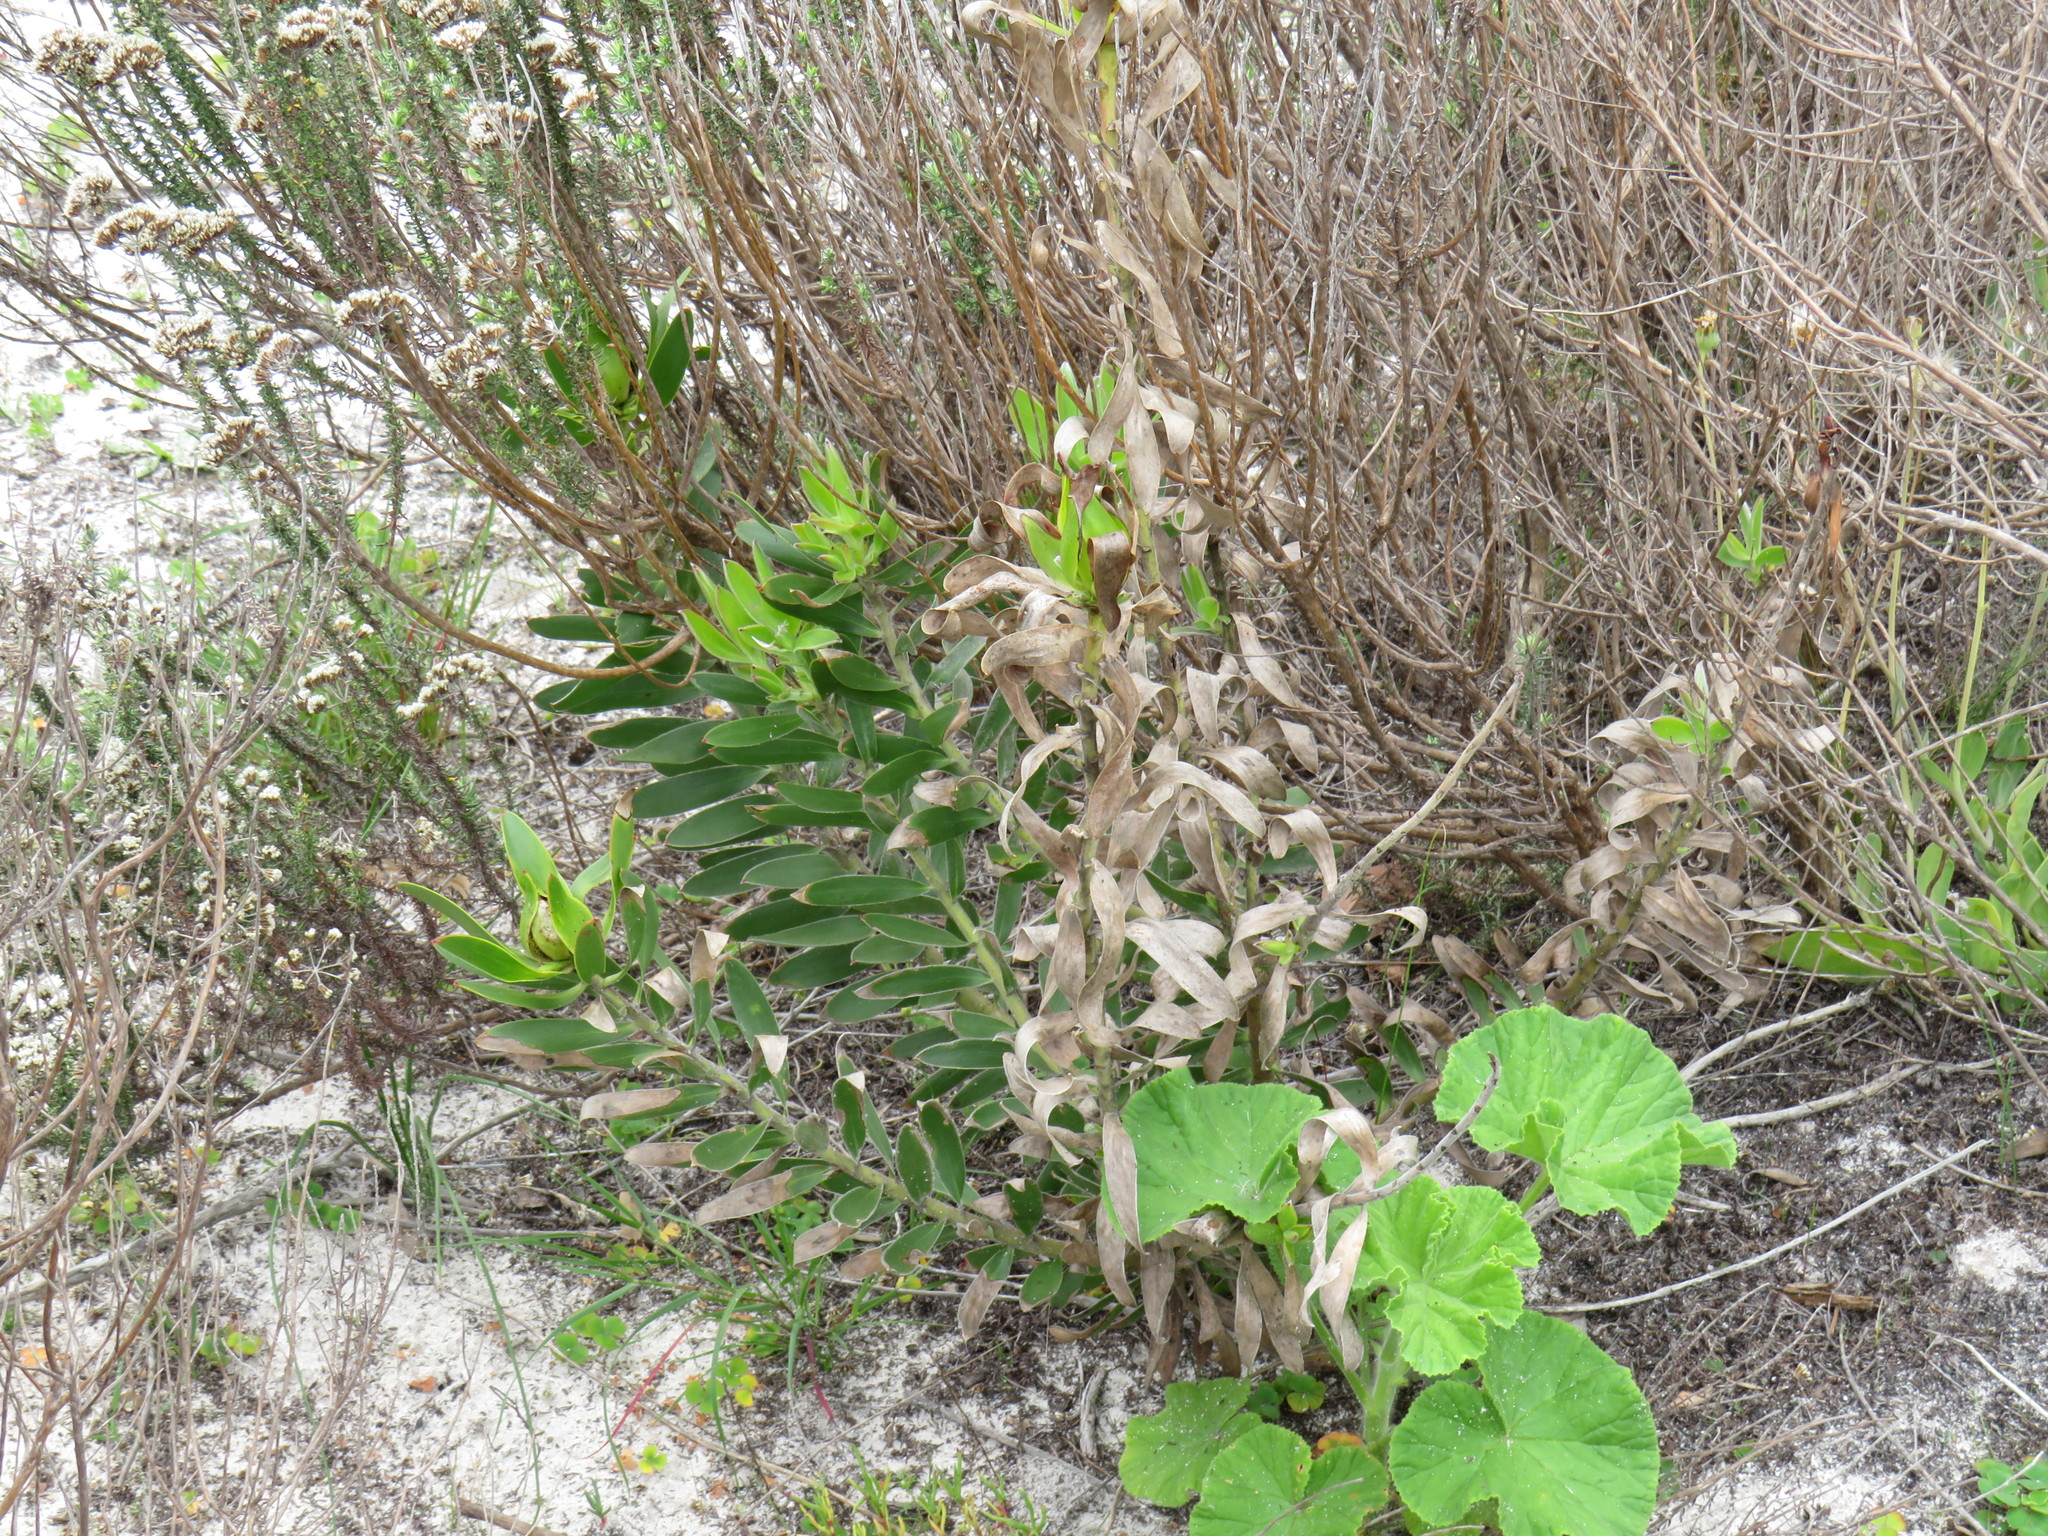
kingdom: Plantae
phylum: Tracheophyta
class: Magnoliopsida
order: Proteales
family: Proteaceae
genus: Leucadendron
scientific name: Leucadendron laureolum
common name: Golden sunshinebush
